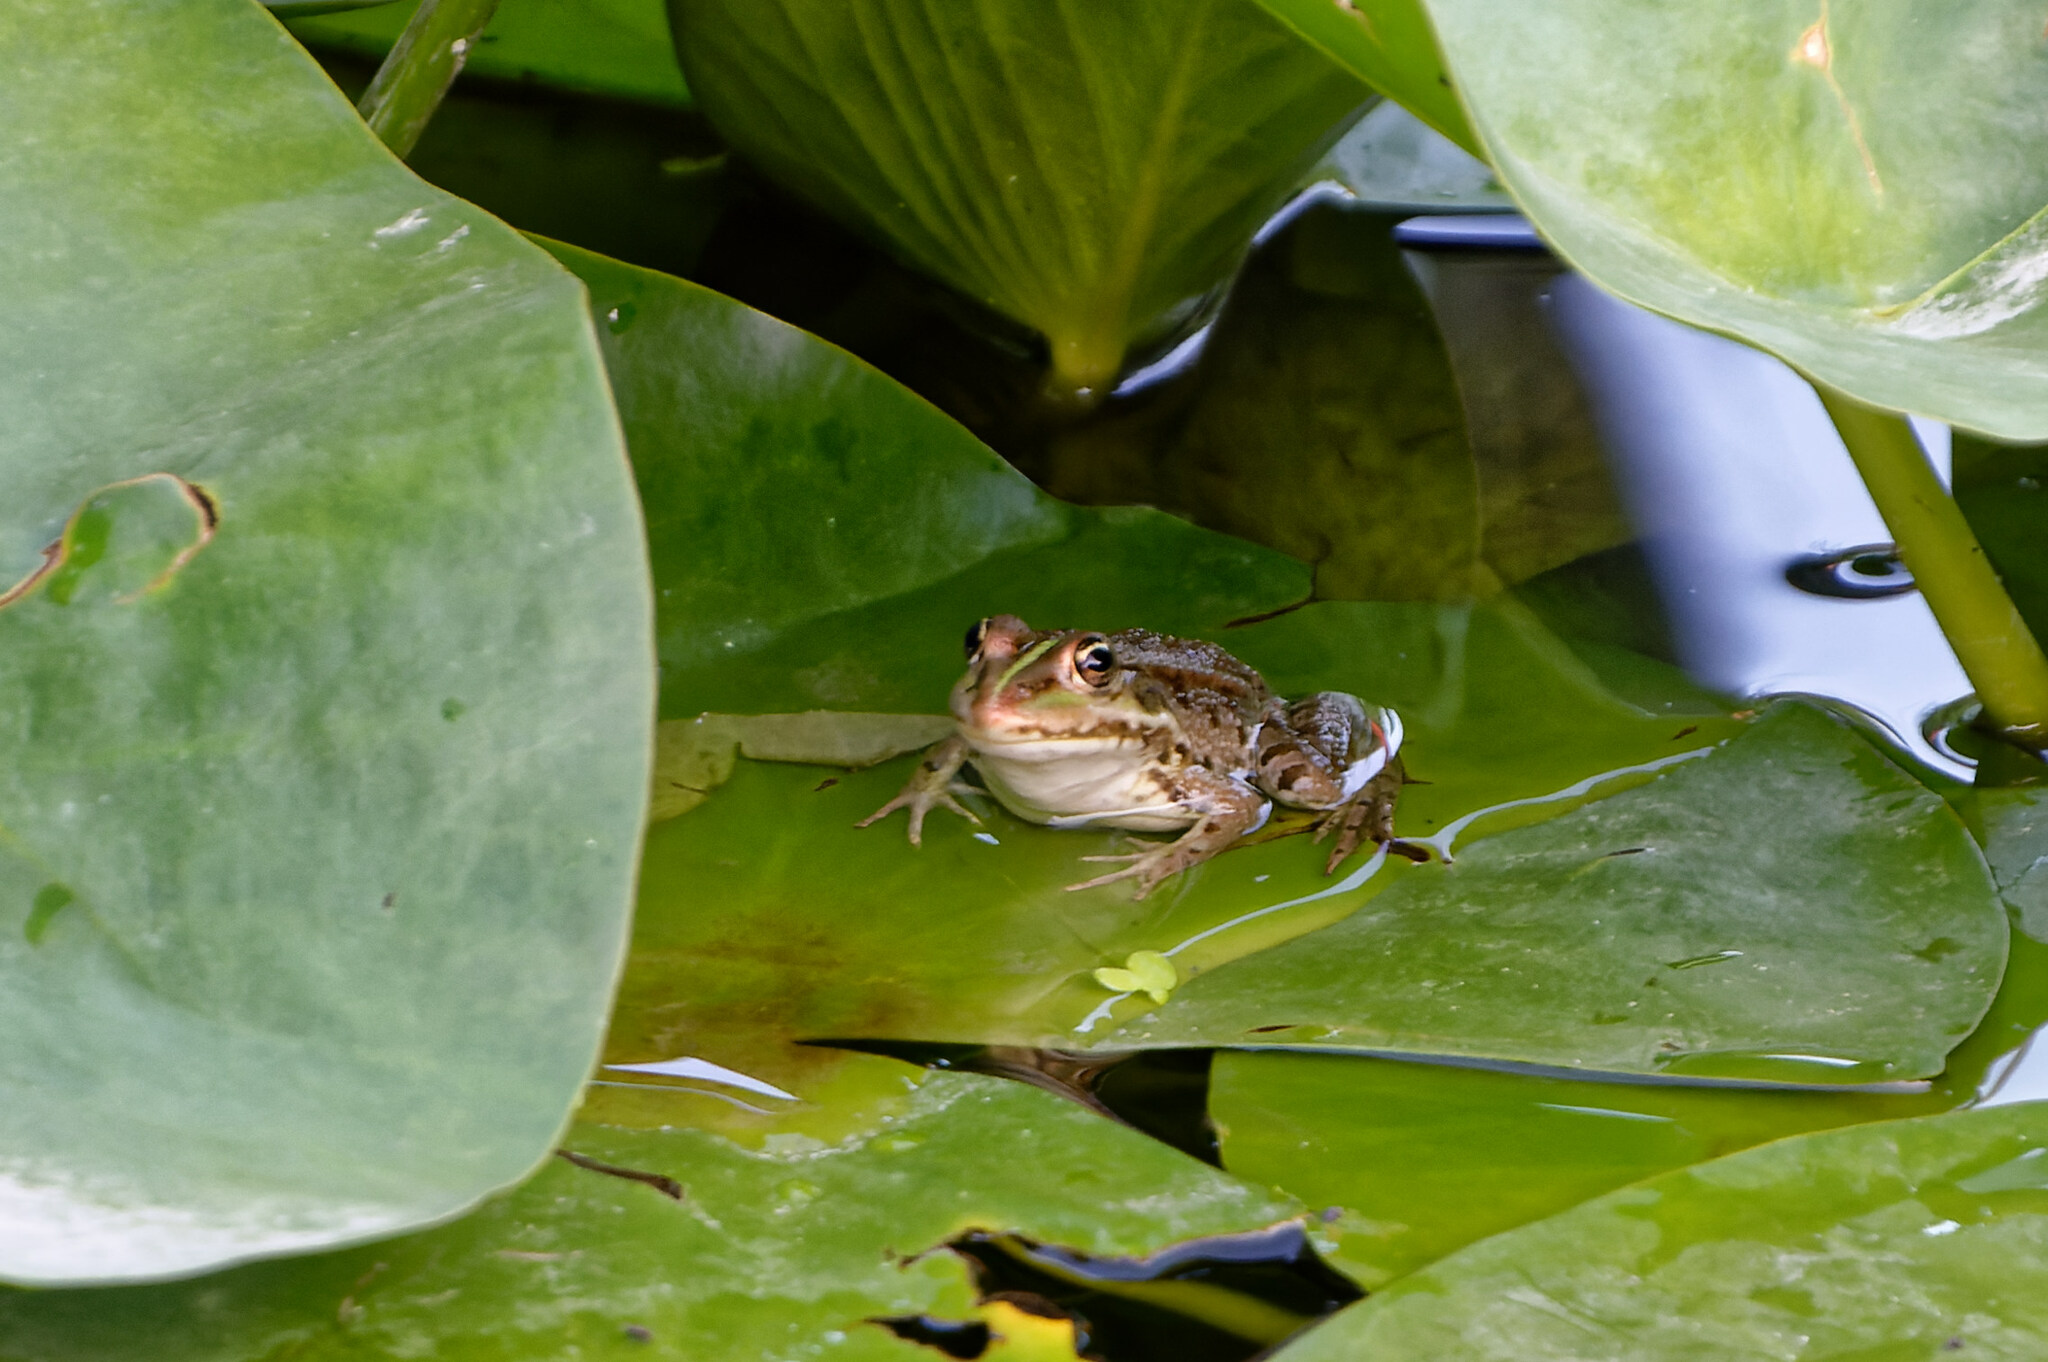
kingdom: Animalia
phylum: Chordata
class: Amphibia
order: Anura
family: Ranidae
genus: Pelophylax
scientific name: Pelophylax
